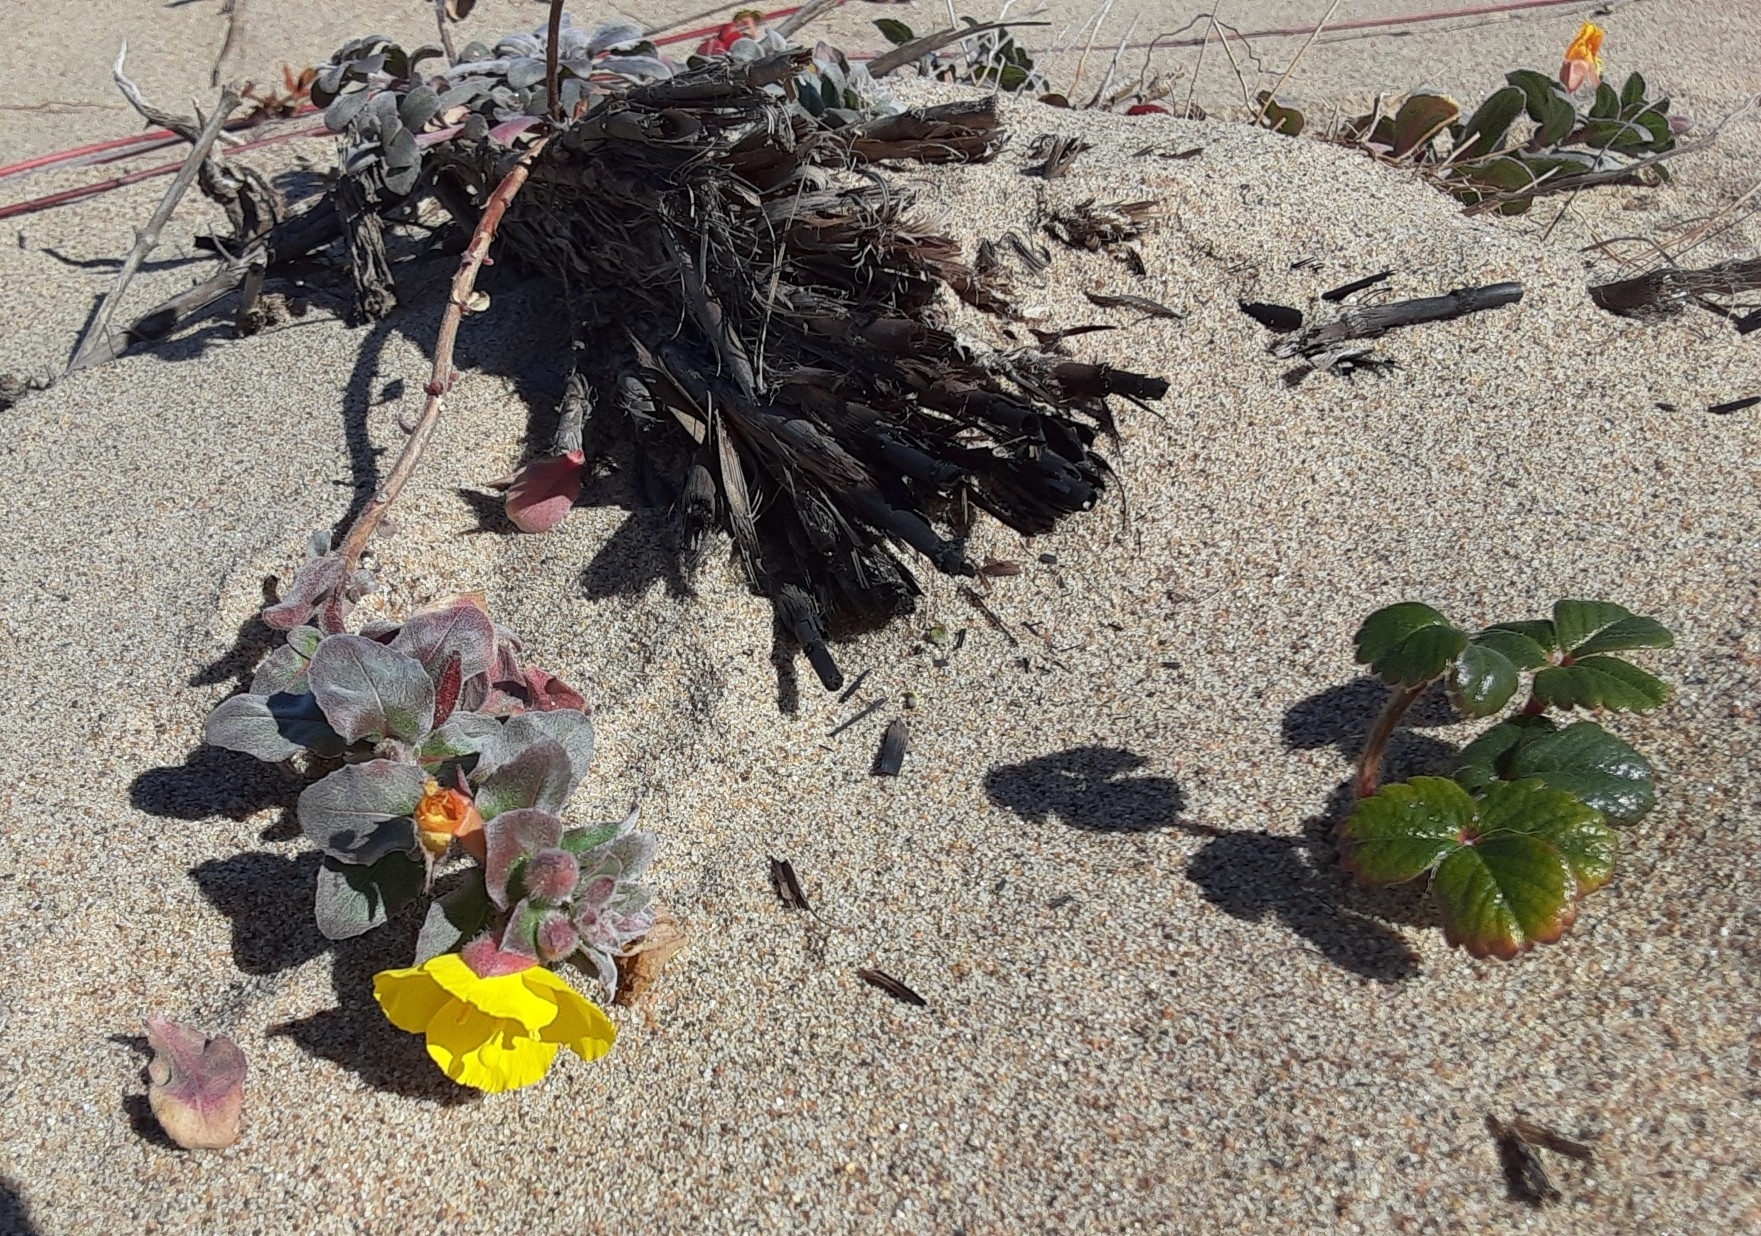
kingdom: Plantae
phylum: Tracheophyta
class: Magnoliopsida
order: Myrtales
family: Onagraceae
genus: Camissoniopsis
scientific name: Camissoniopsis cheiranthifolia
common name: Beach suncup
